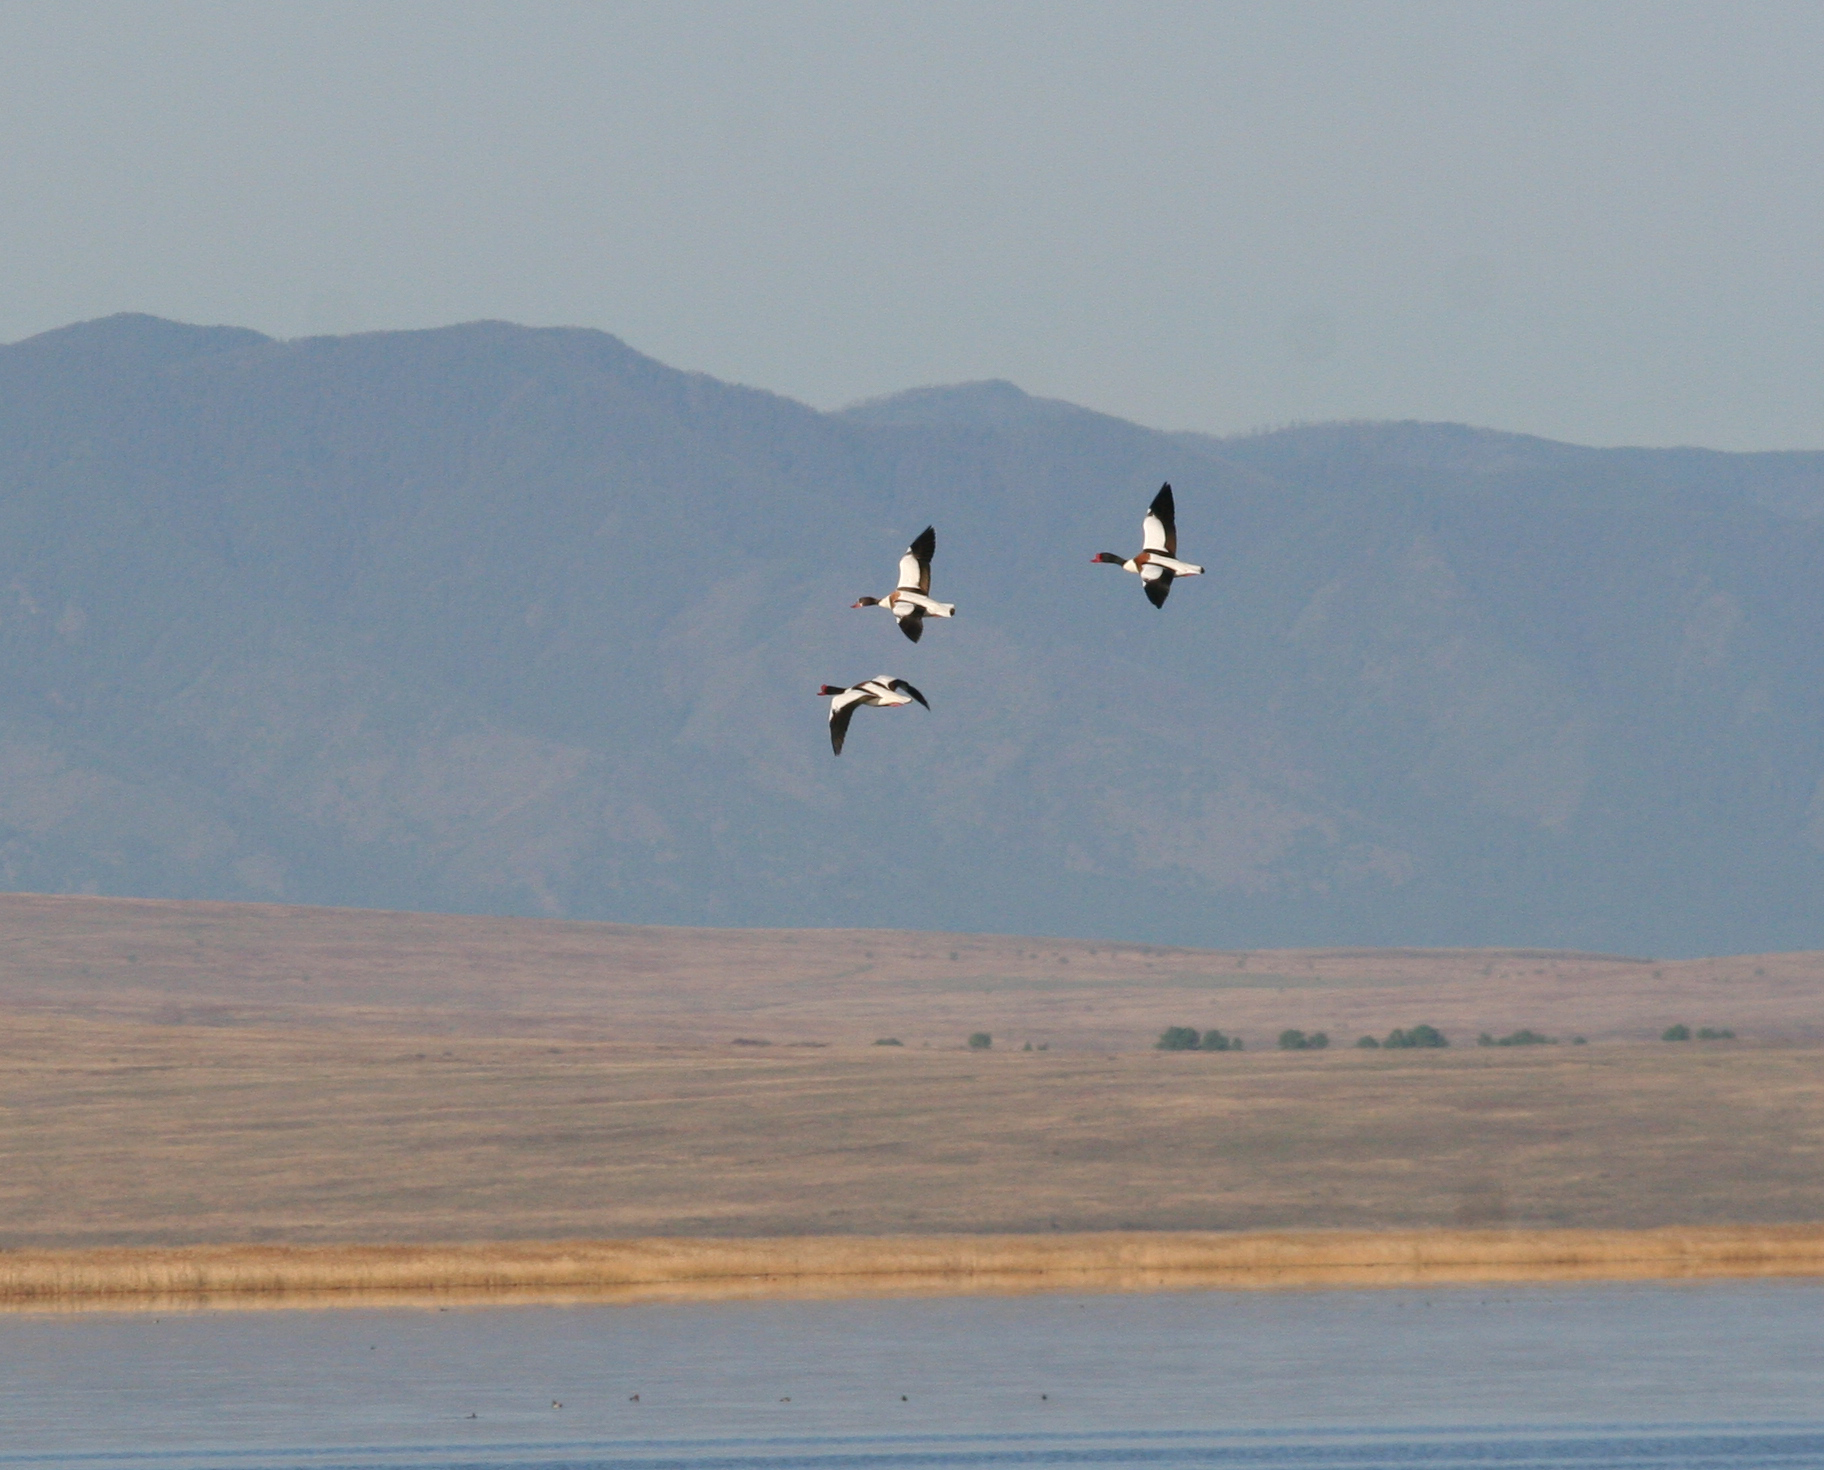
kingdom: Animalia
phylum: Chordata
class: Aves
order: Anseriformes
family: Anatidae
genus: Tadorna
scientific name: Tadorna tadorna
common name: Common shelduck
